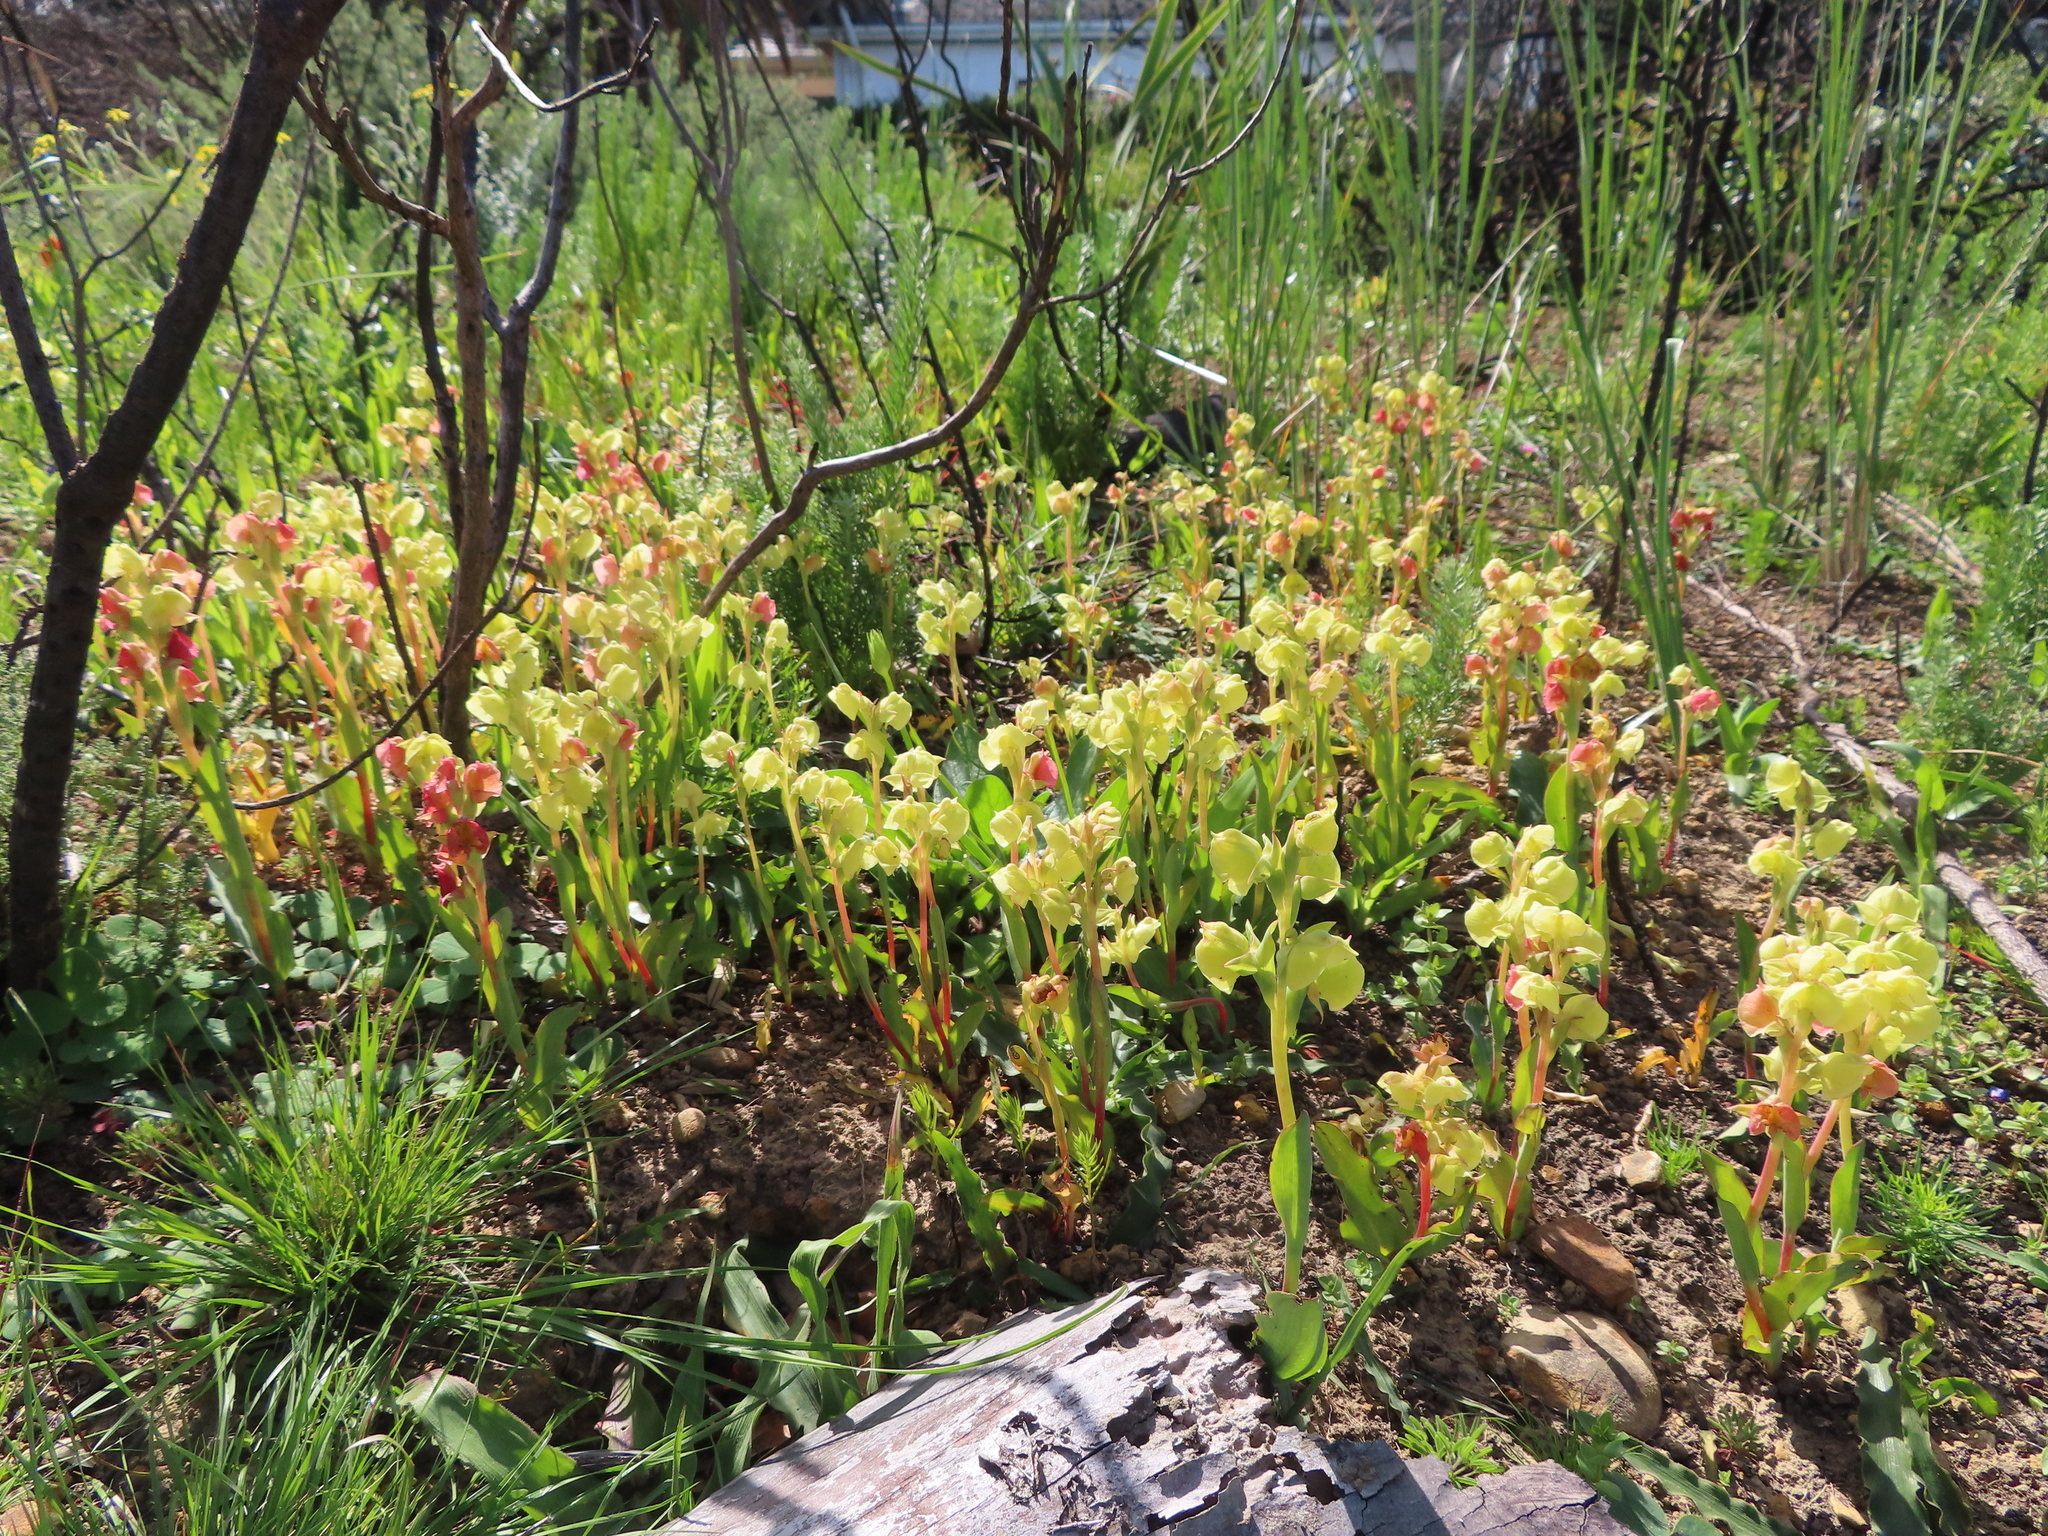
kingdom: Plantae
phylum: Tracheophyta
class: Liliopsida
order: Asparagales
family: Orchidaceae
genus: Pterygodium
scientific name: Pterygodium catholicum
